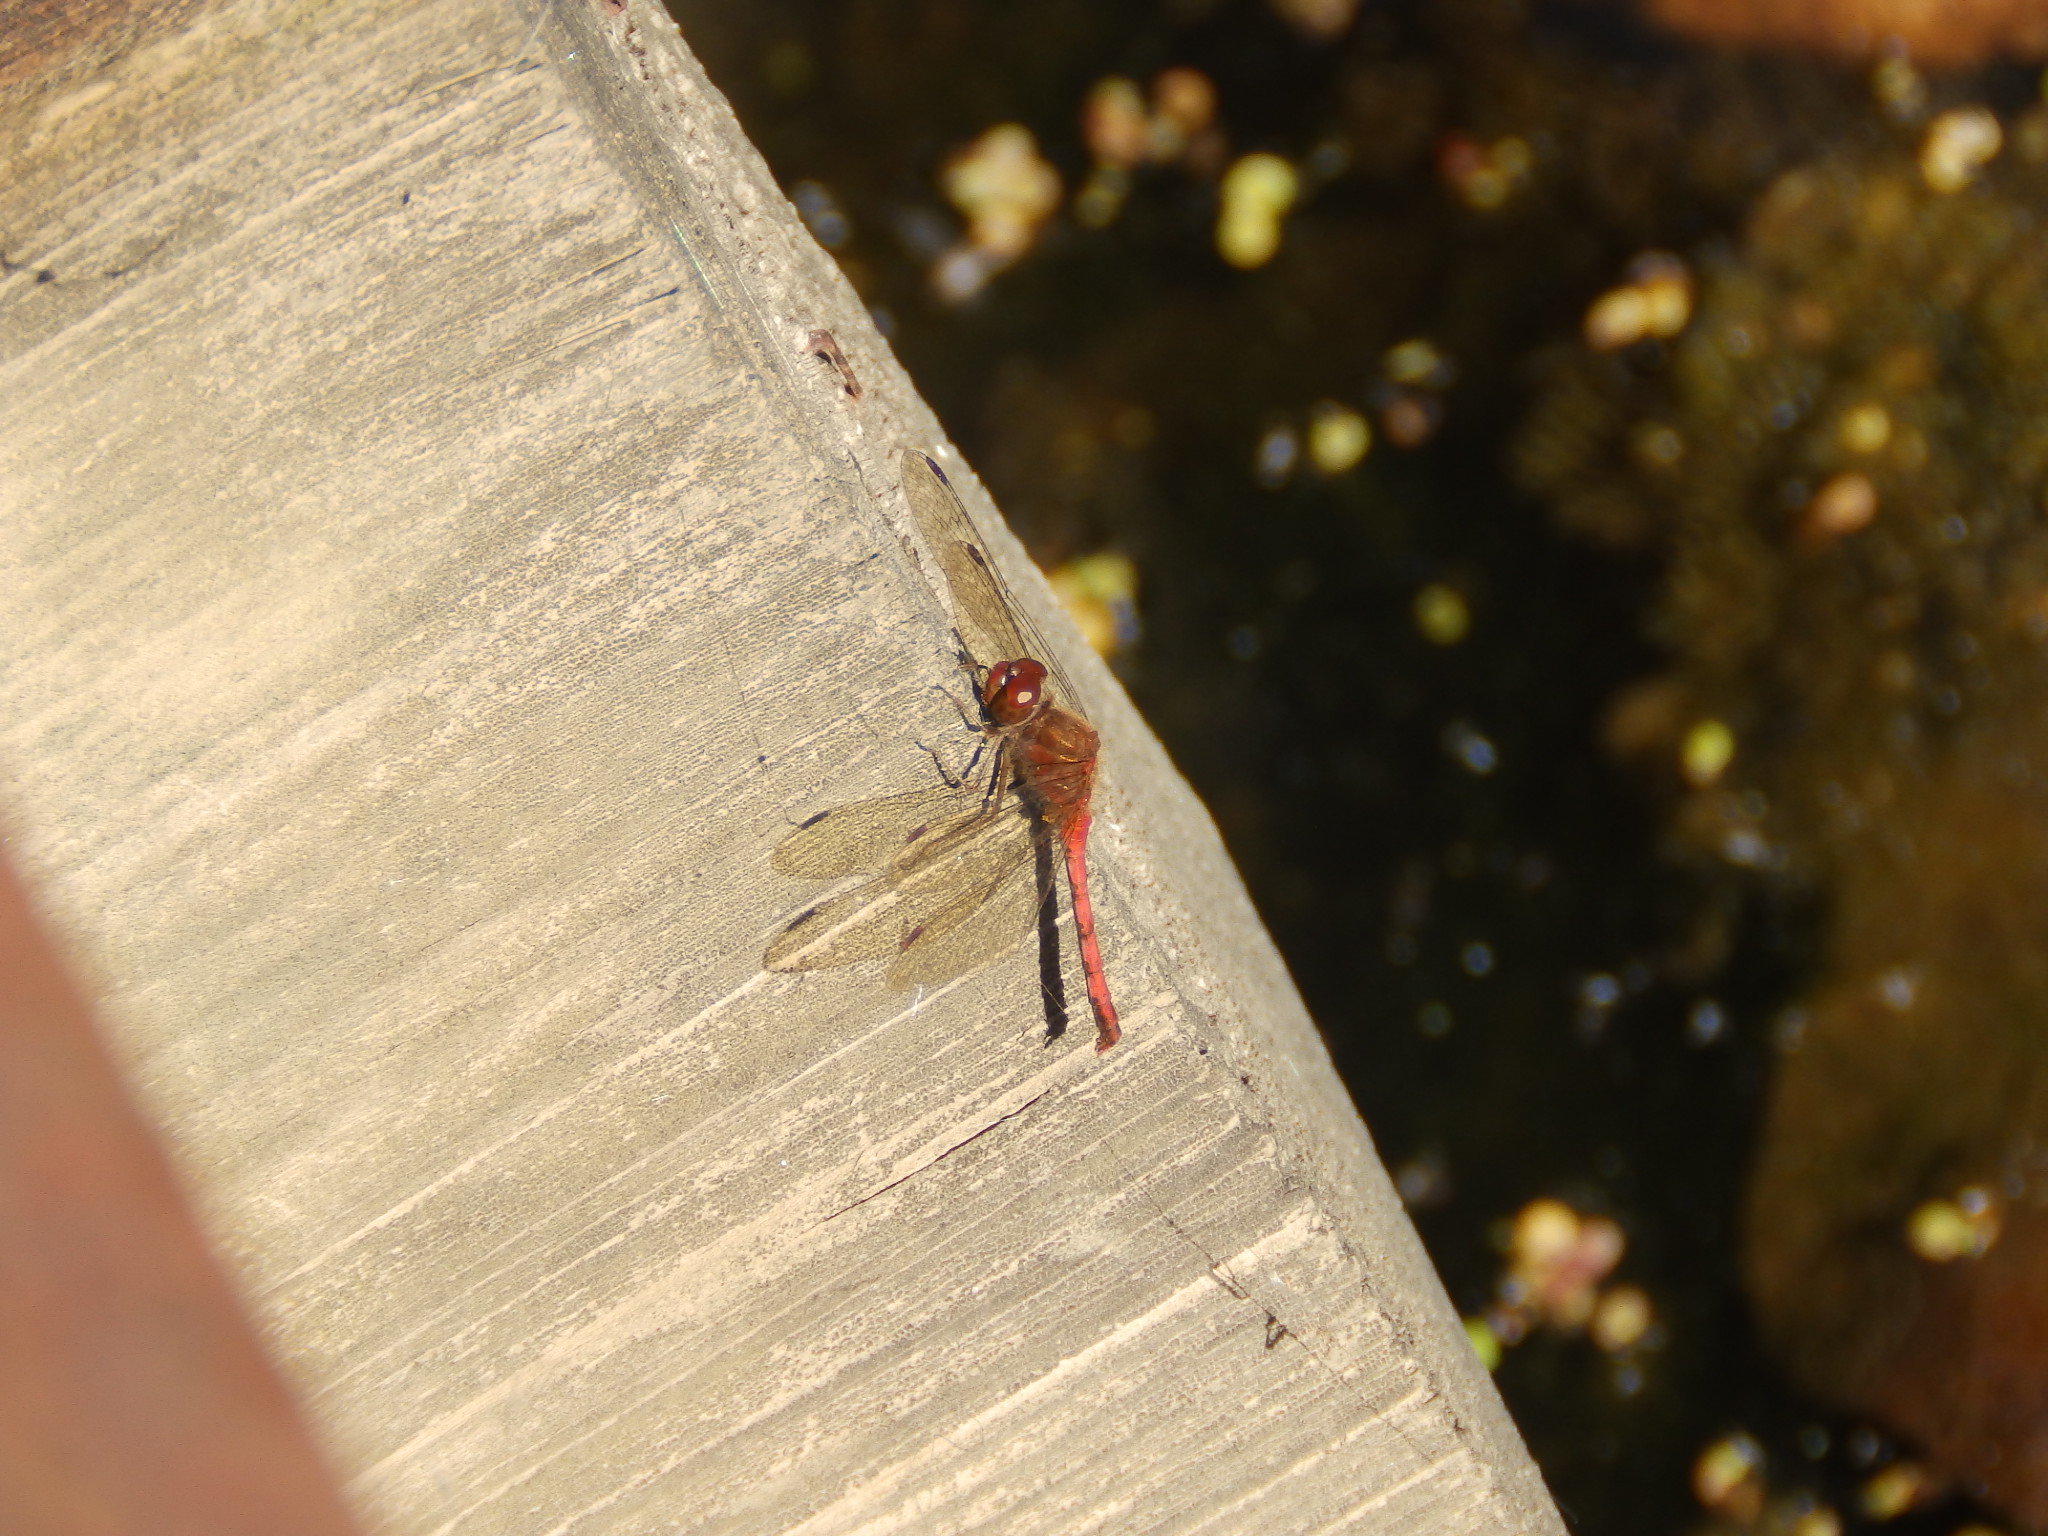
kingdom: Animalia
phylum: Arthropoda
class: Insecta
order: Odonata
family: Libellulidae
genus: Sympetrum
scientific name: Sympetrum vicinum
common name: Autumn meadowhawk
